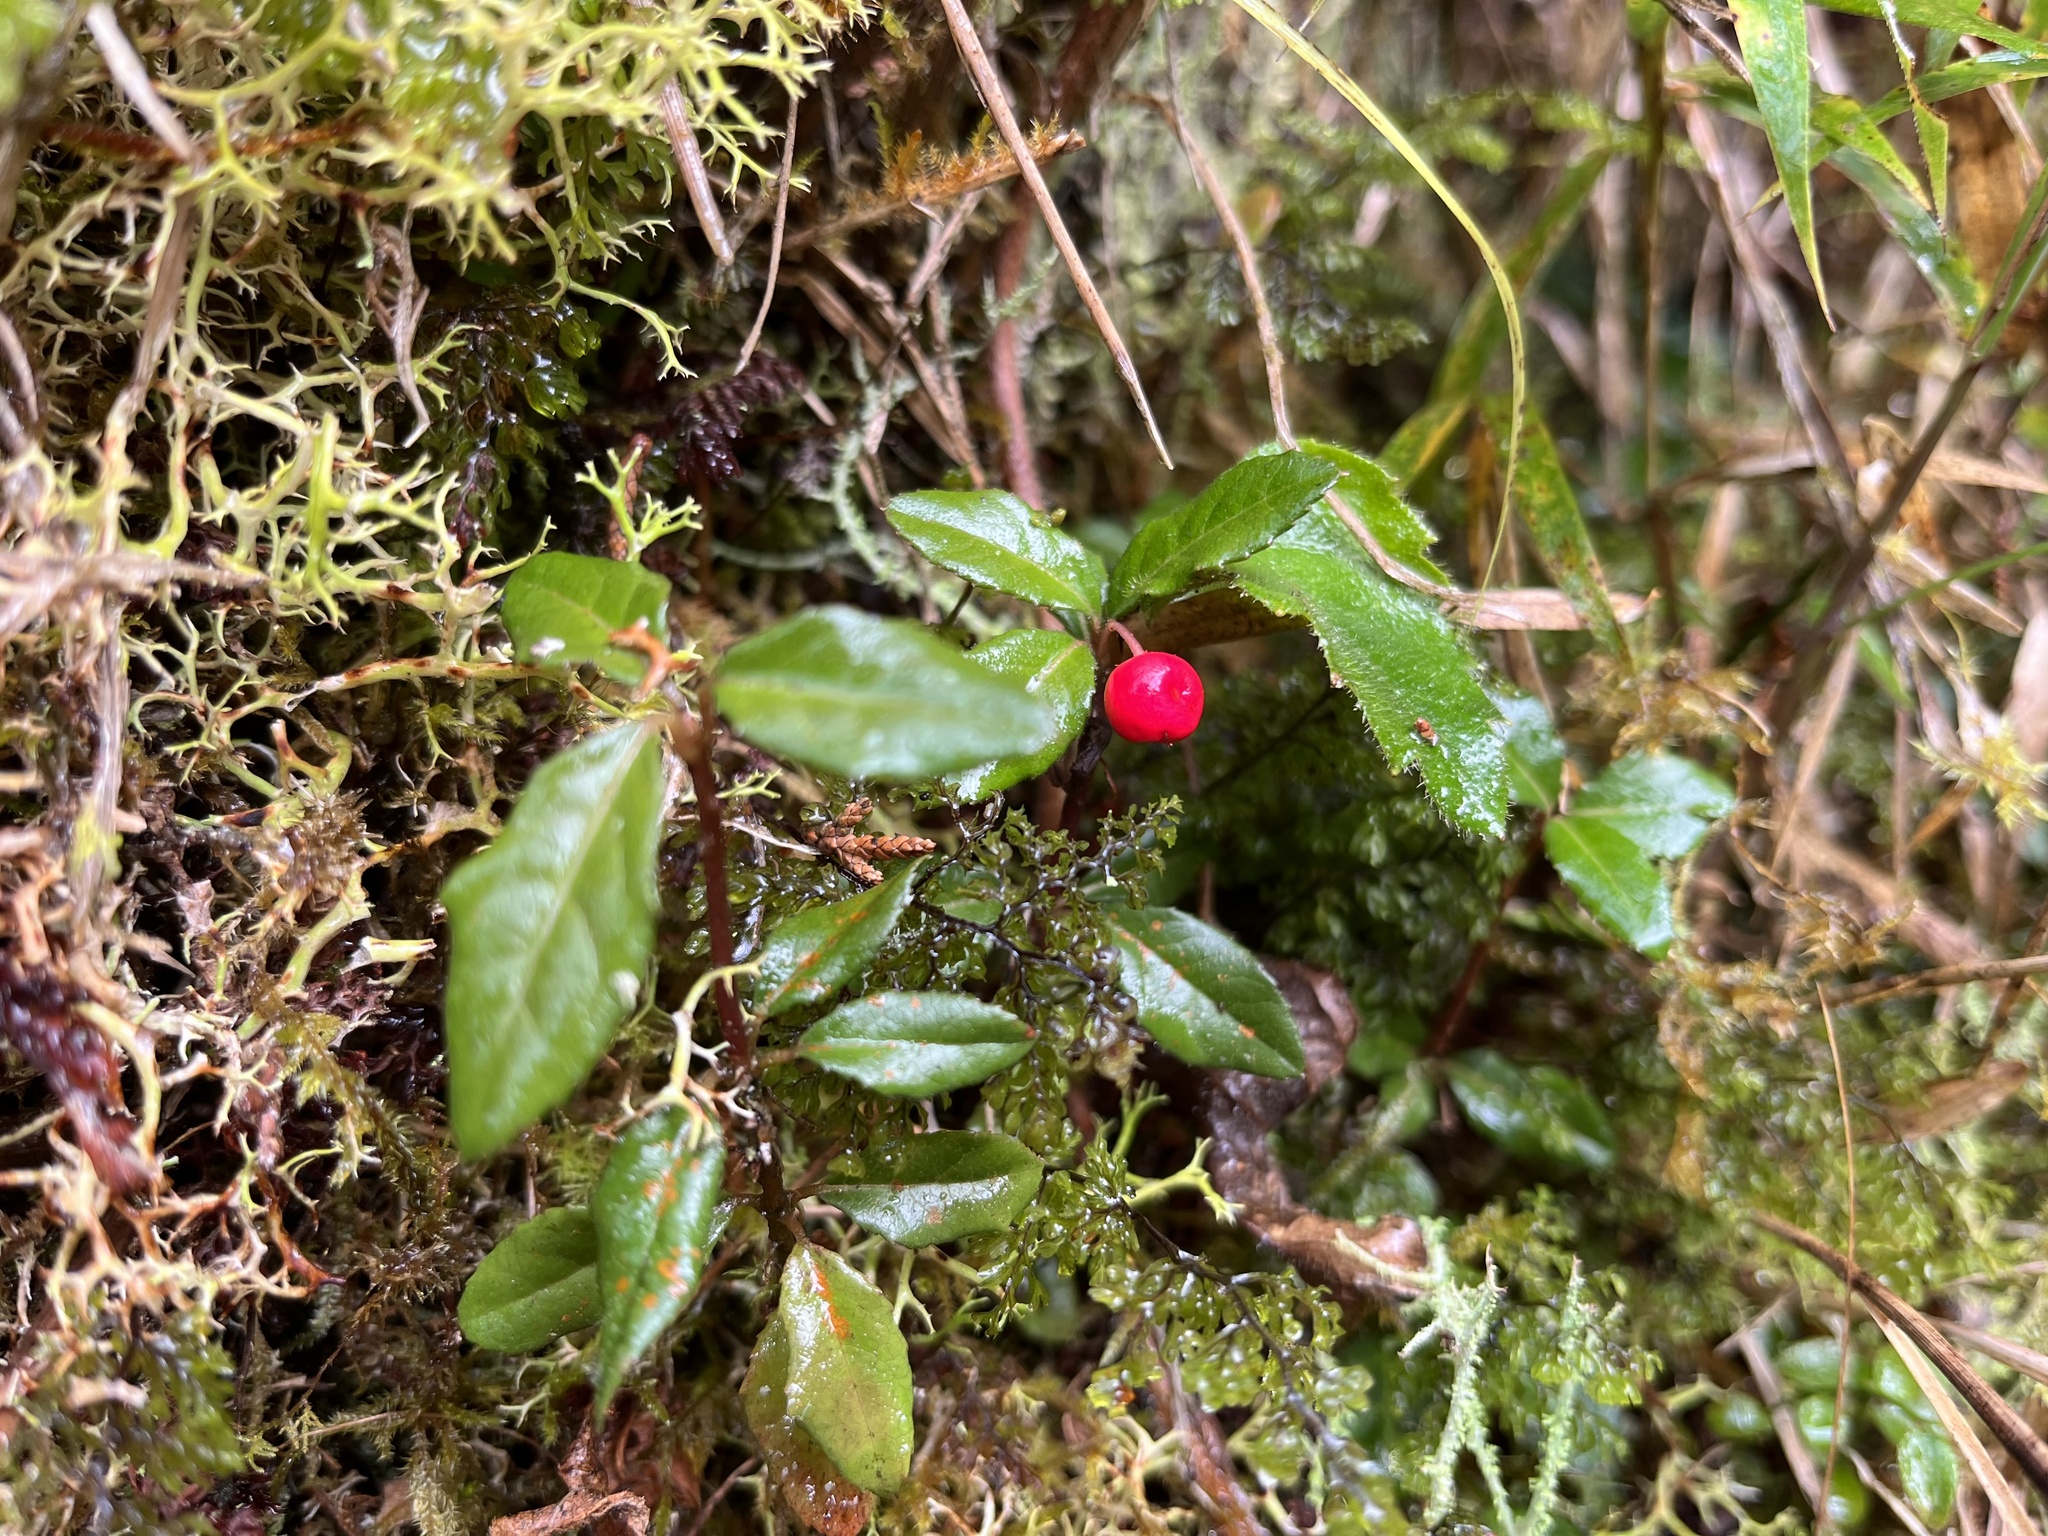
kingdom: Plantae
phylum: Tracheophyta
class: Magnoliopsida
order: Ericales
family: Primulaceae
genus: Ardisia
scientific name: Ardisia japonica
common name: Marlberry
